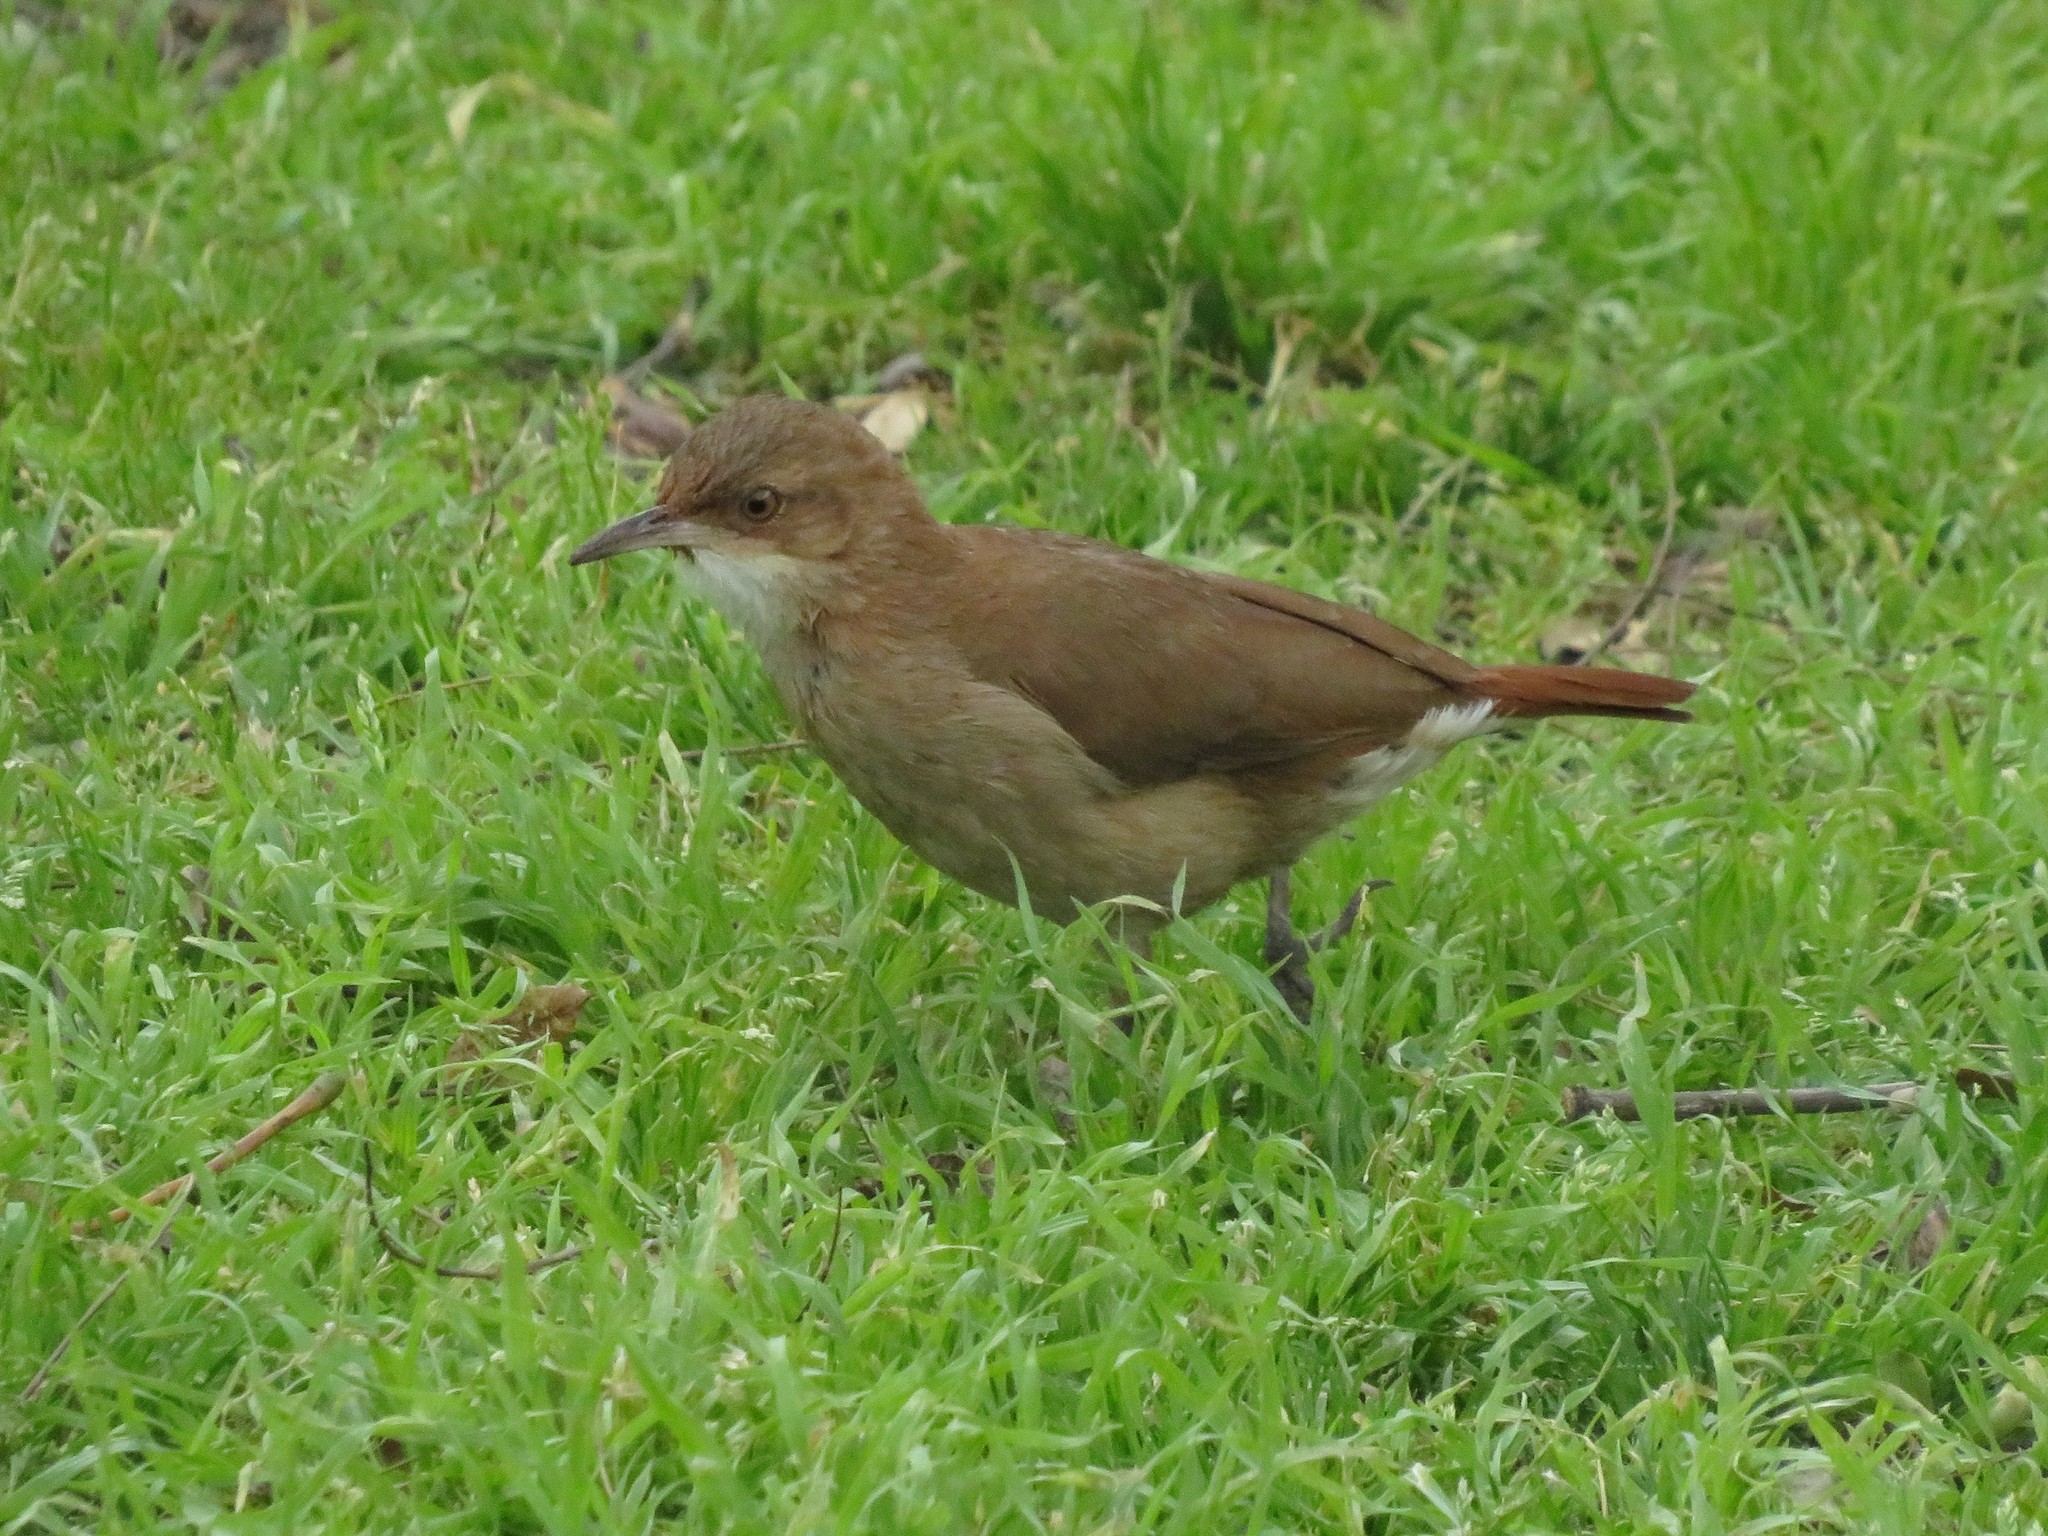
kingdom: Animalia
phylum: Chordata
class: Aves
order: Passeriformes
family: Furnariidae
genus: Furnarius
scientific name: Furnarius rufus
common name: Rufous hornero
